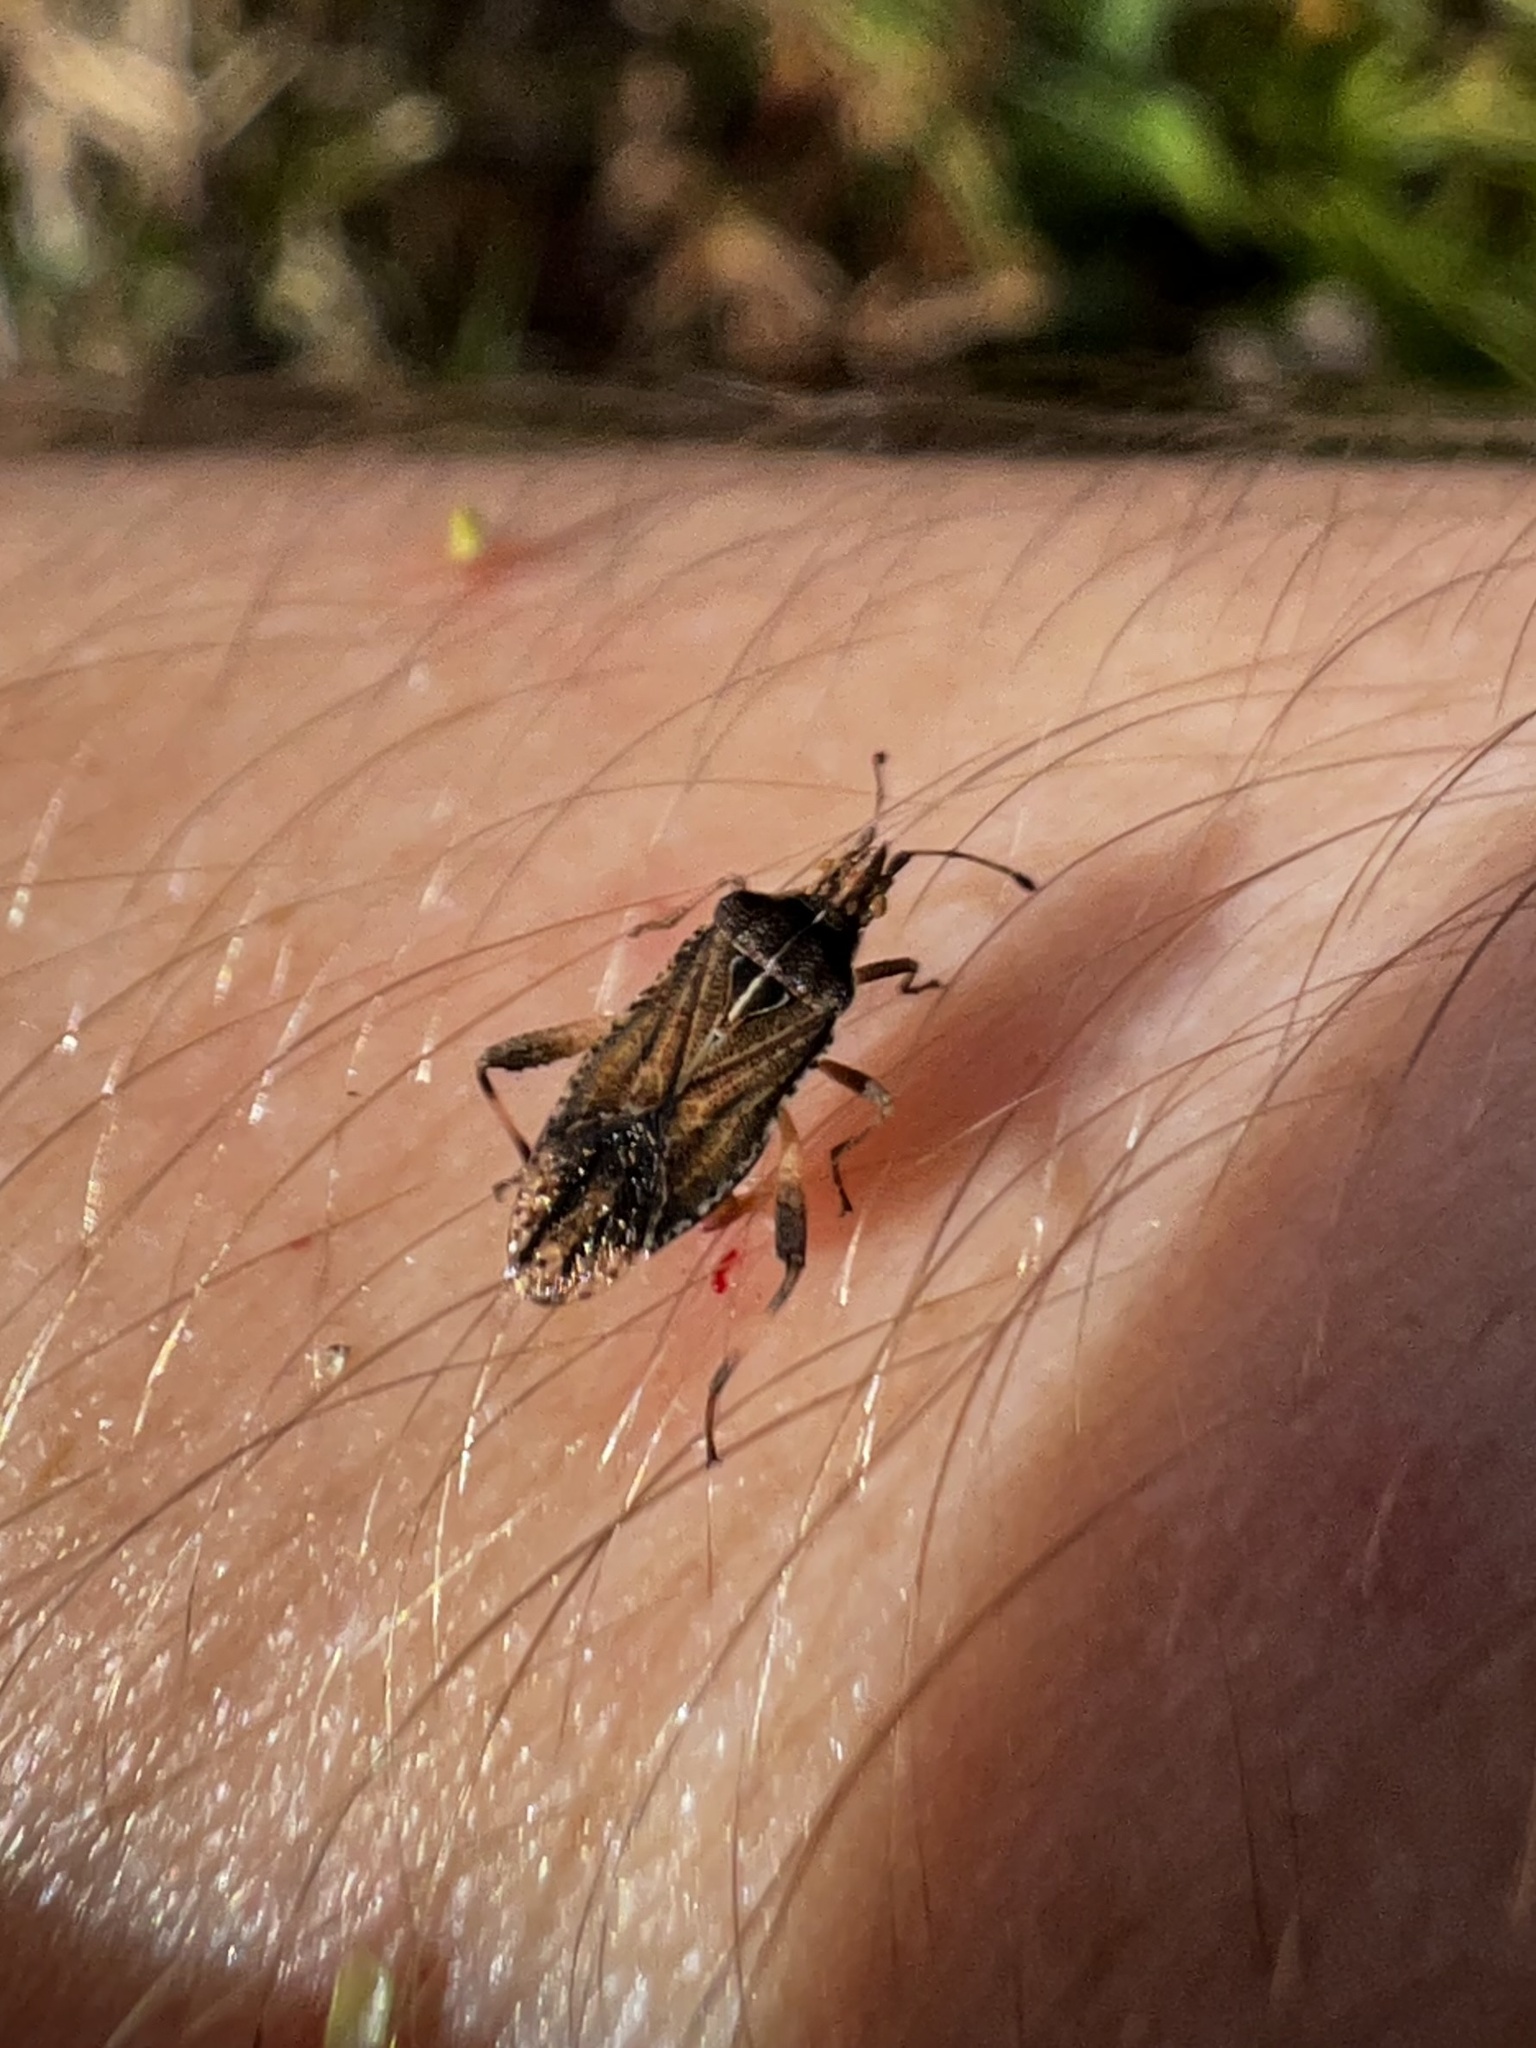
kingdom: Animalia
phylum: Arthropoda
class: Insecta
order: Hemiptera
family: Rhopalidae
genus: Harmostes
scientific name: Harmostes fraterculus
